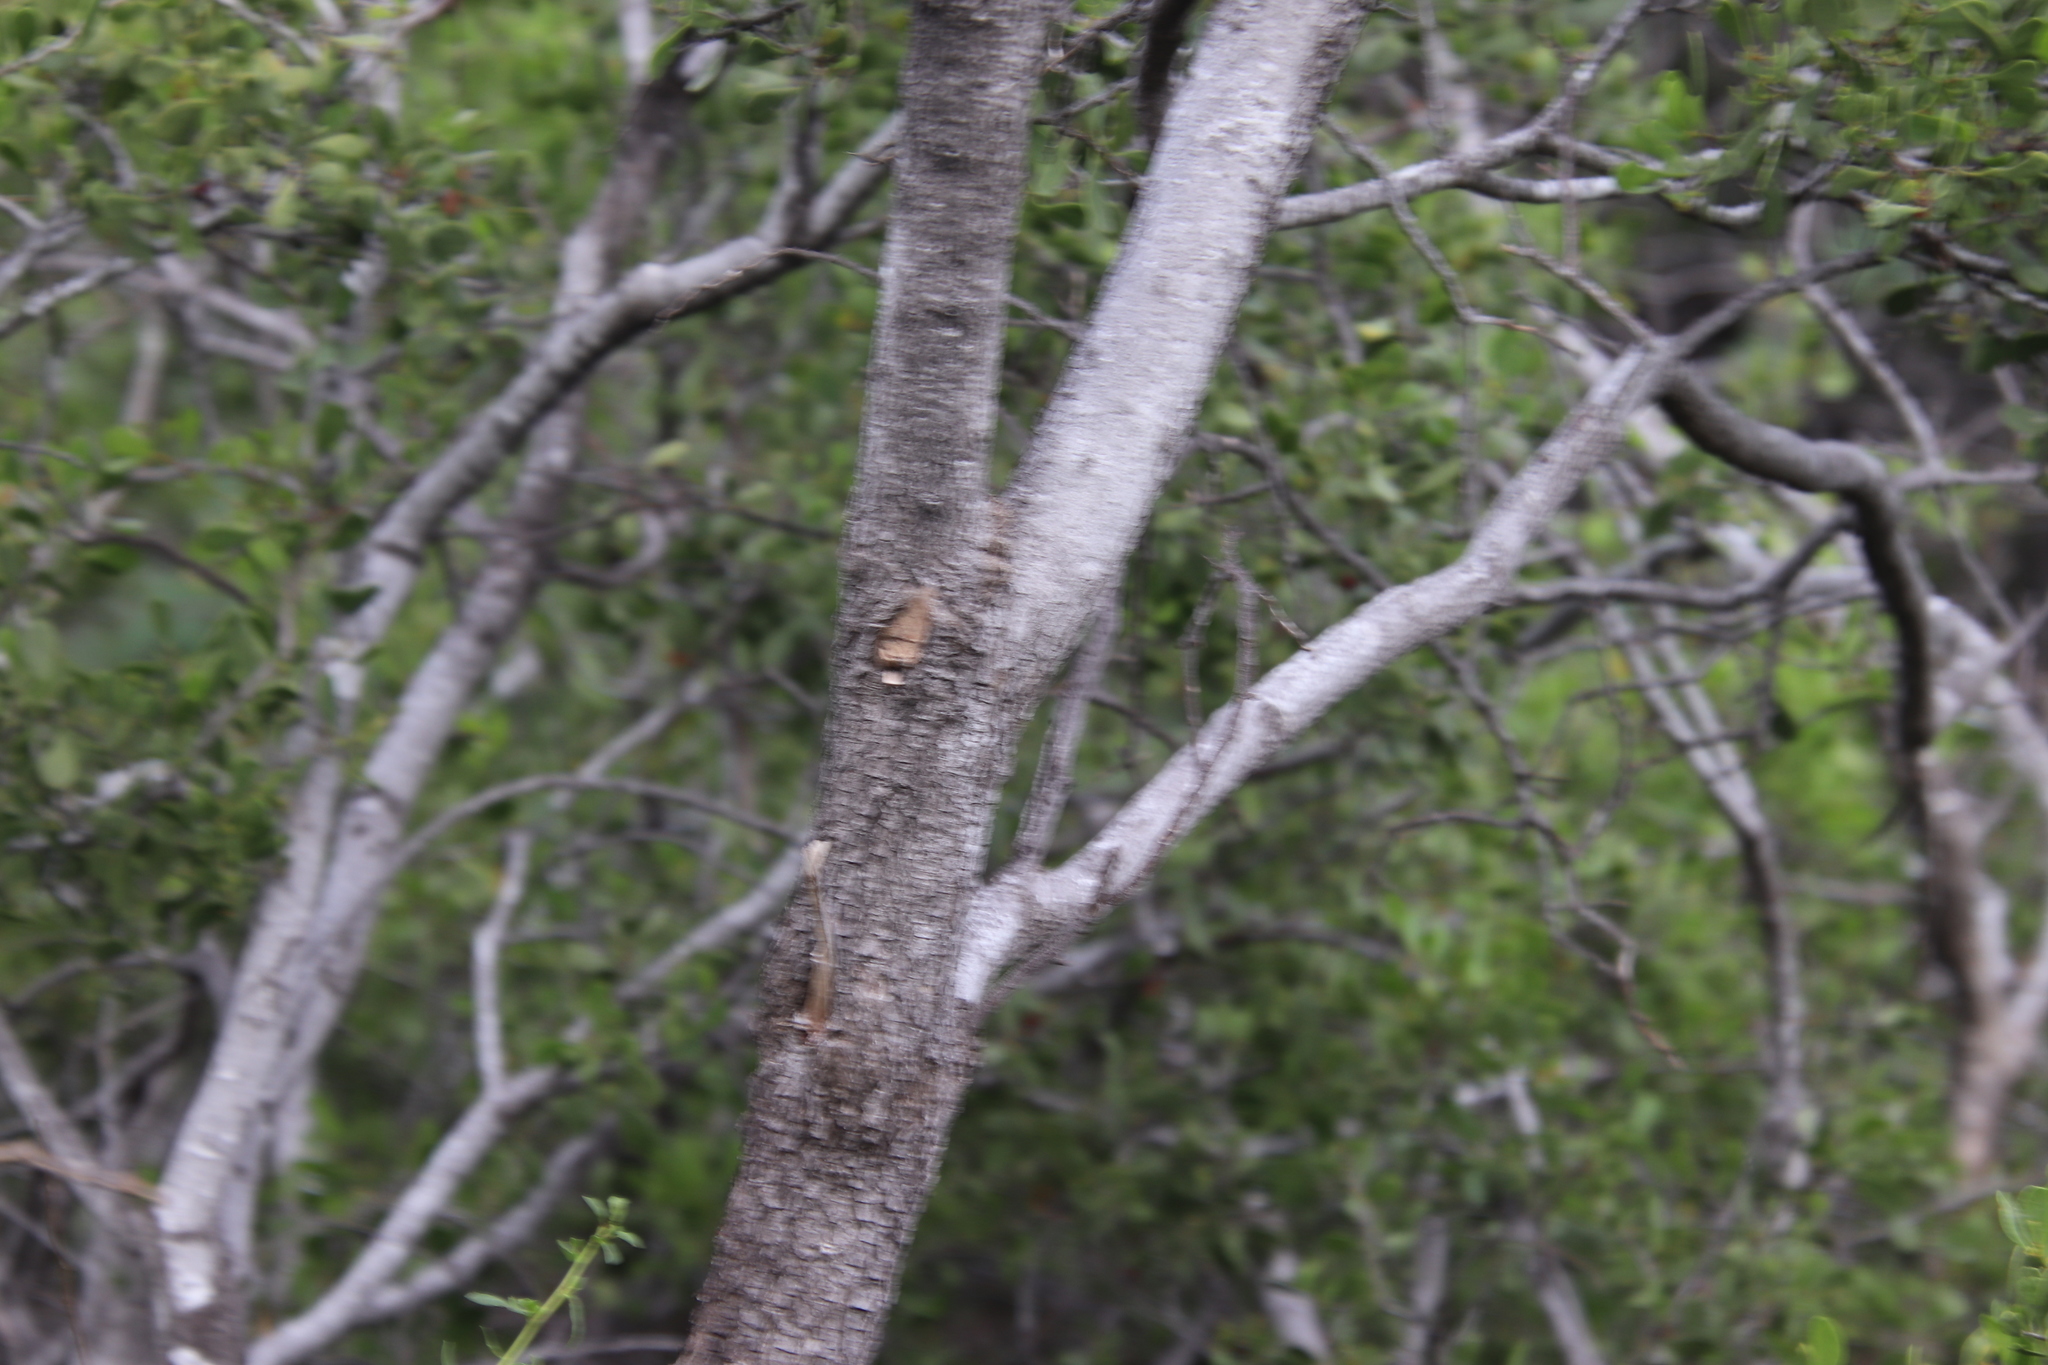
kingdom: Plantae
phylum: Tracheophyta
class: Magnoliopsida
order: Celastrales
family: Celastraceae
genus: Tricerma
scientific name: Tricerma phyllanthoides
